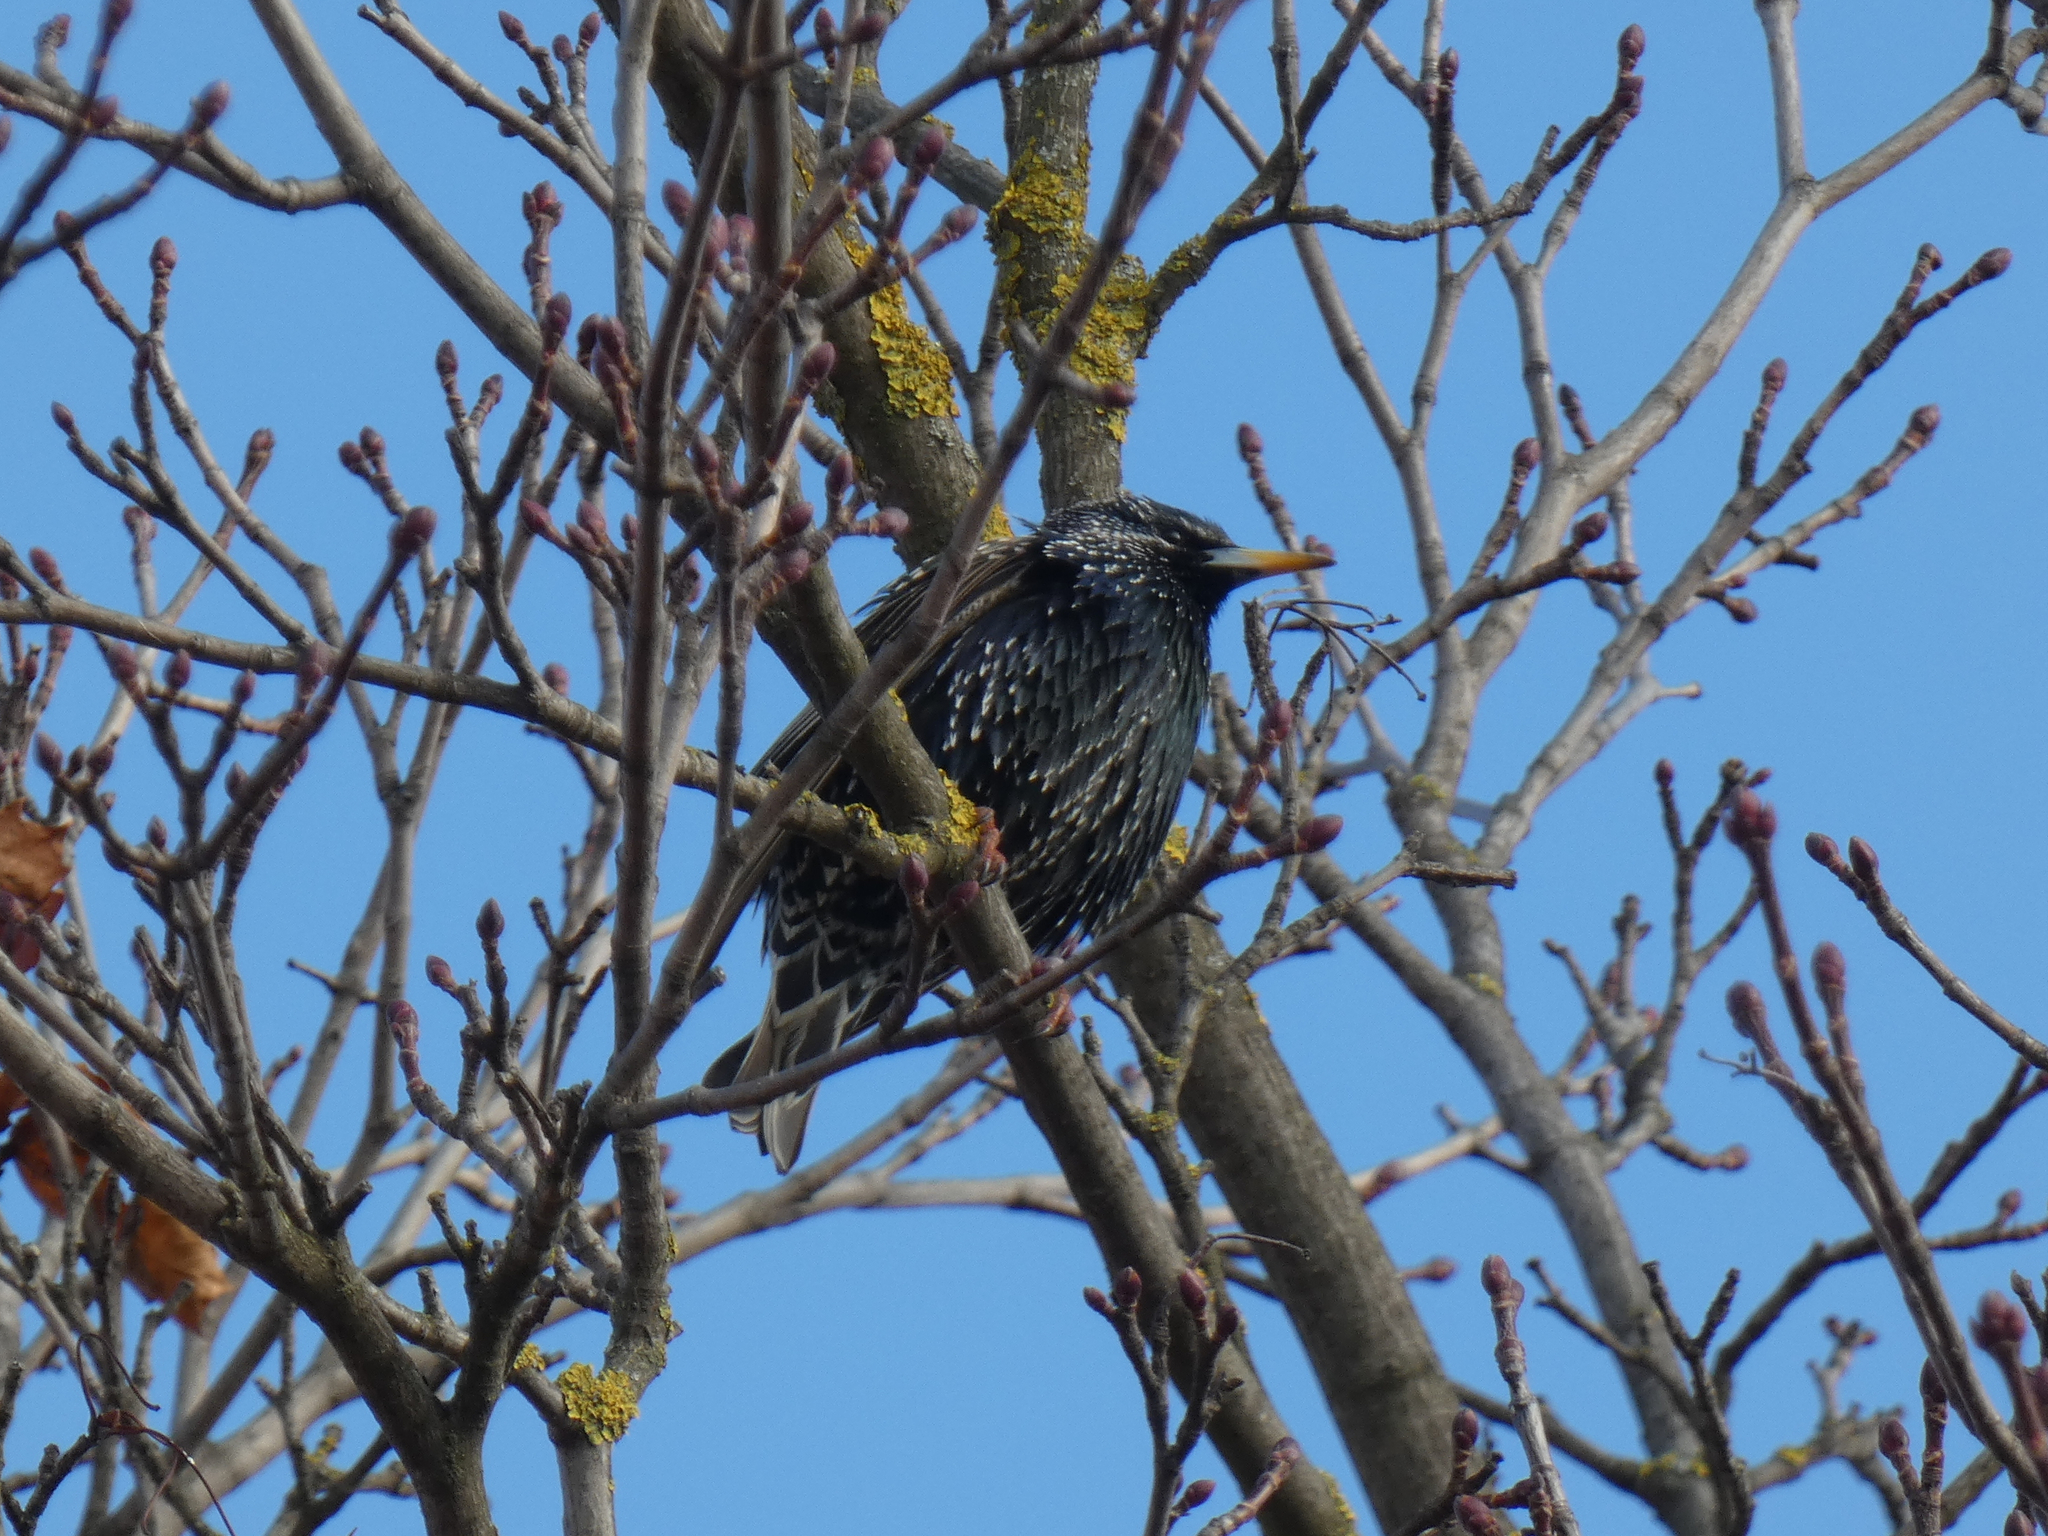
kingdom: Animalia
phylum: Chordata
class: Aves
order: Passeriformes
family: Sturnidae
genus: Sturnus
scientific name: Sturnus vulgaris
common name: Common starling
